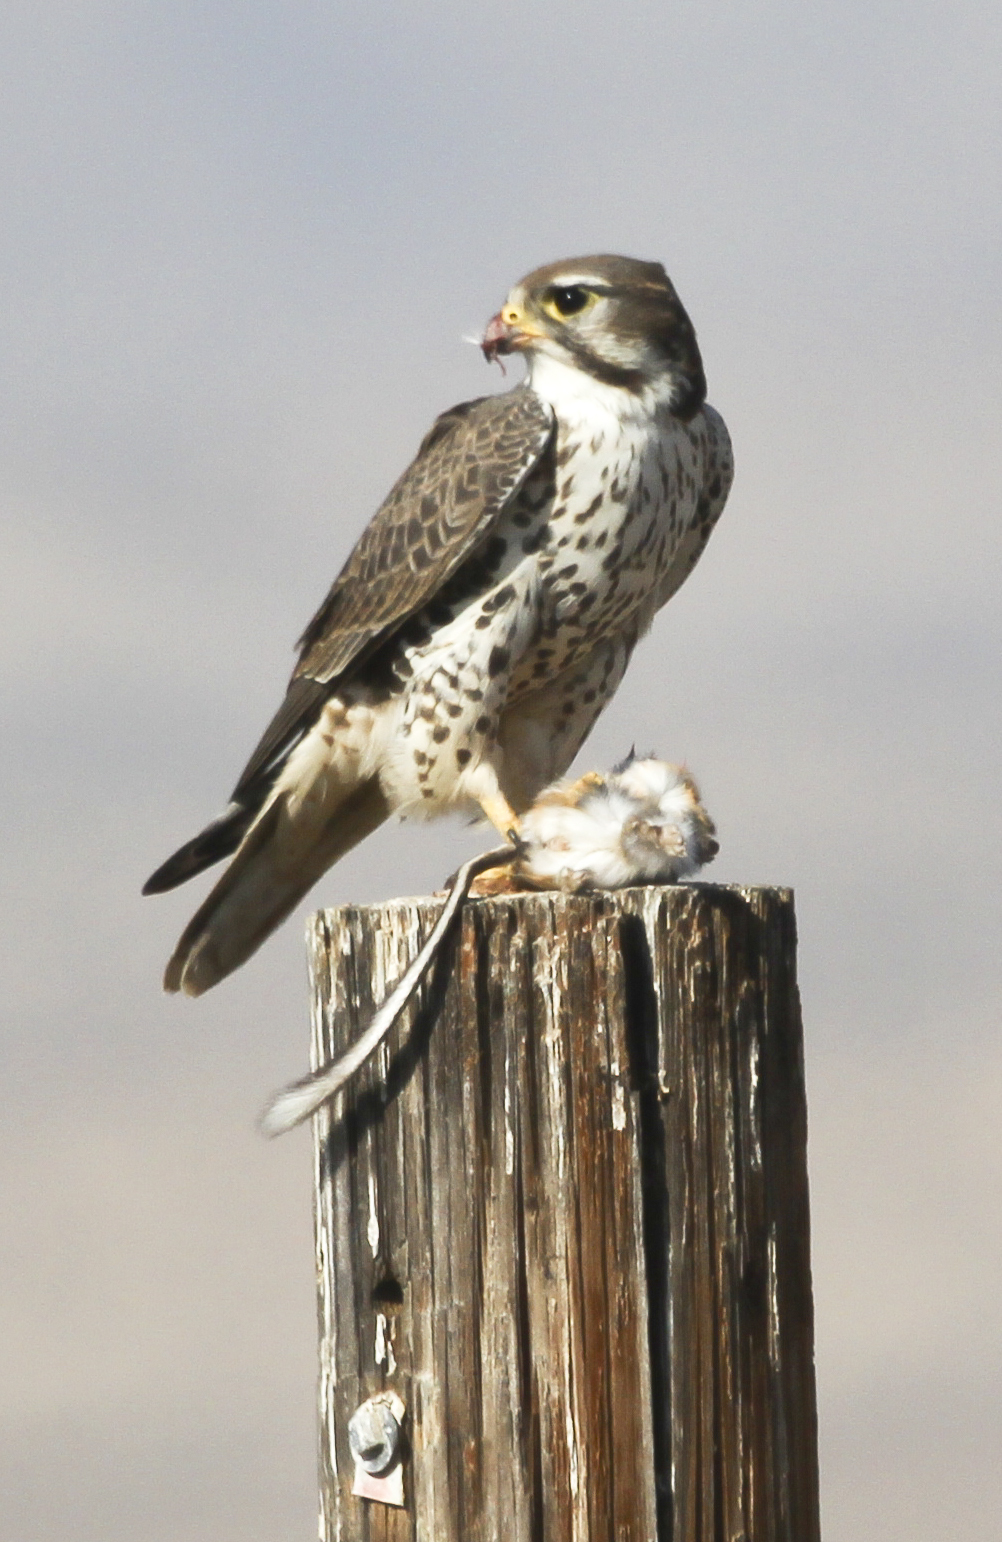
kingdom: Animalia
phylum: Chordata
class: Aves
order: Falconiformes
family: Falconidae
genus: Falco
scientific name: Falco mexicanus
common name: Prairie falcon
